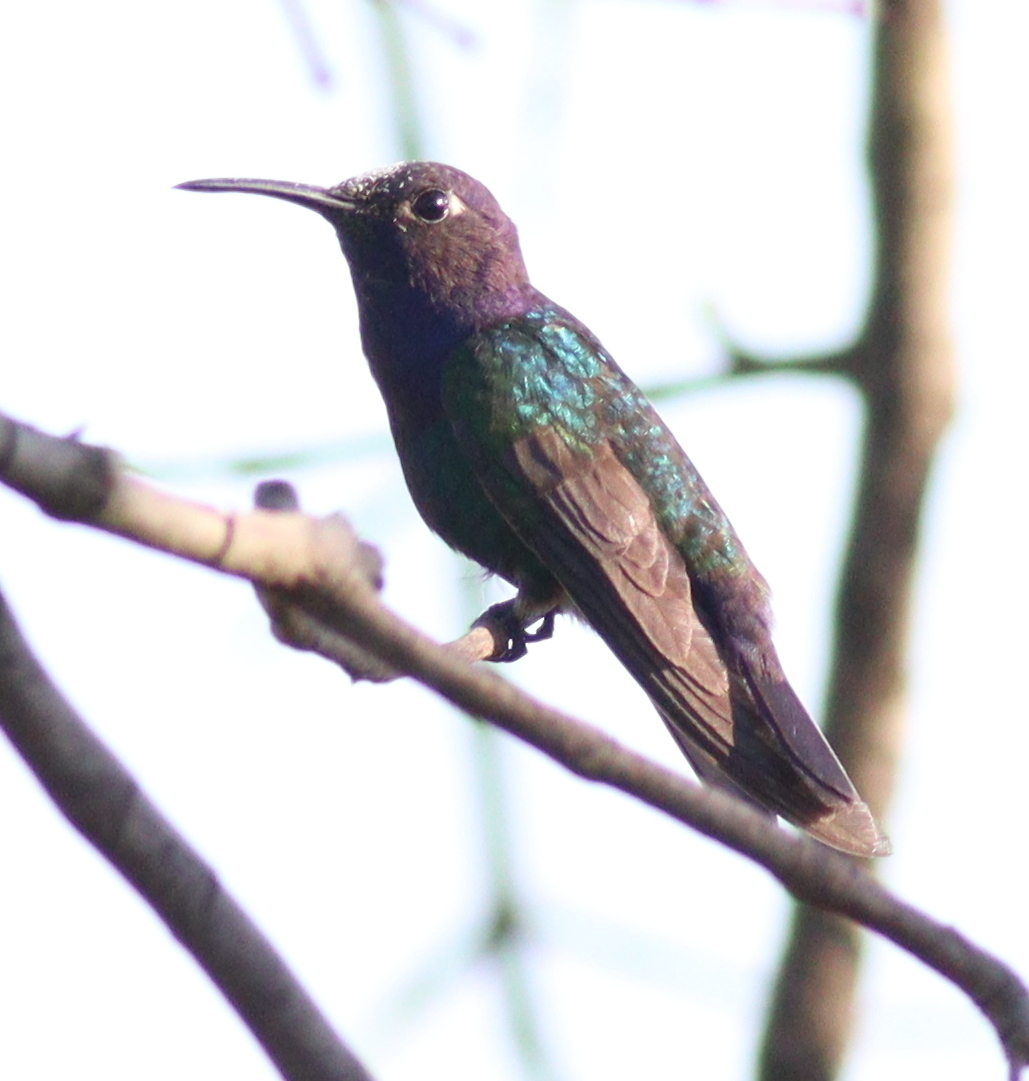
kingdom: Animalia
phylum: Chordata
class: Aves
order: Apodiformes
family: Trochilidae
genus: Eupetomena
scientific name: Eupetomena macroura
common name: Swallow-tailed hummingbird
